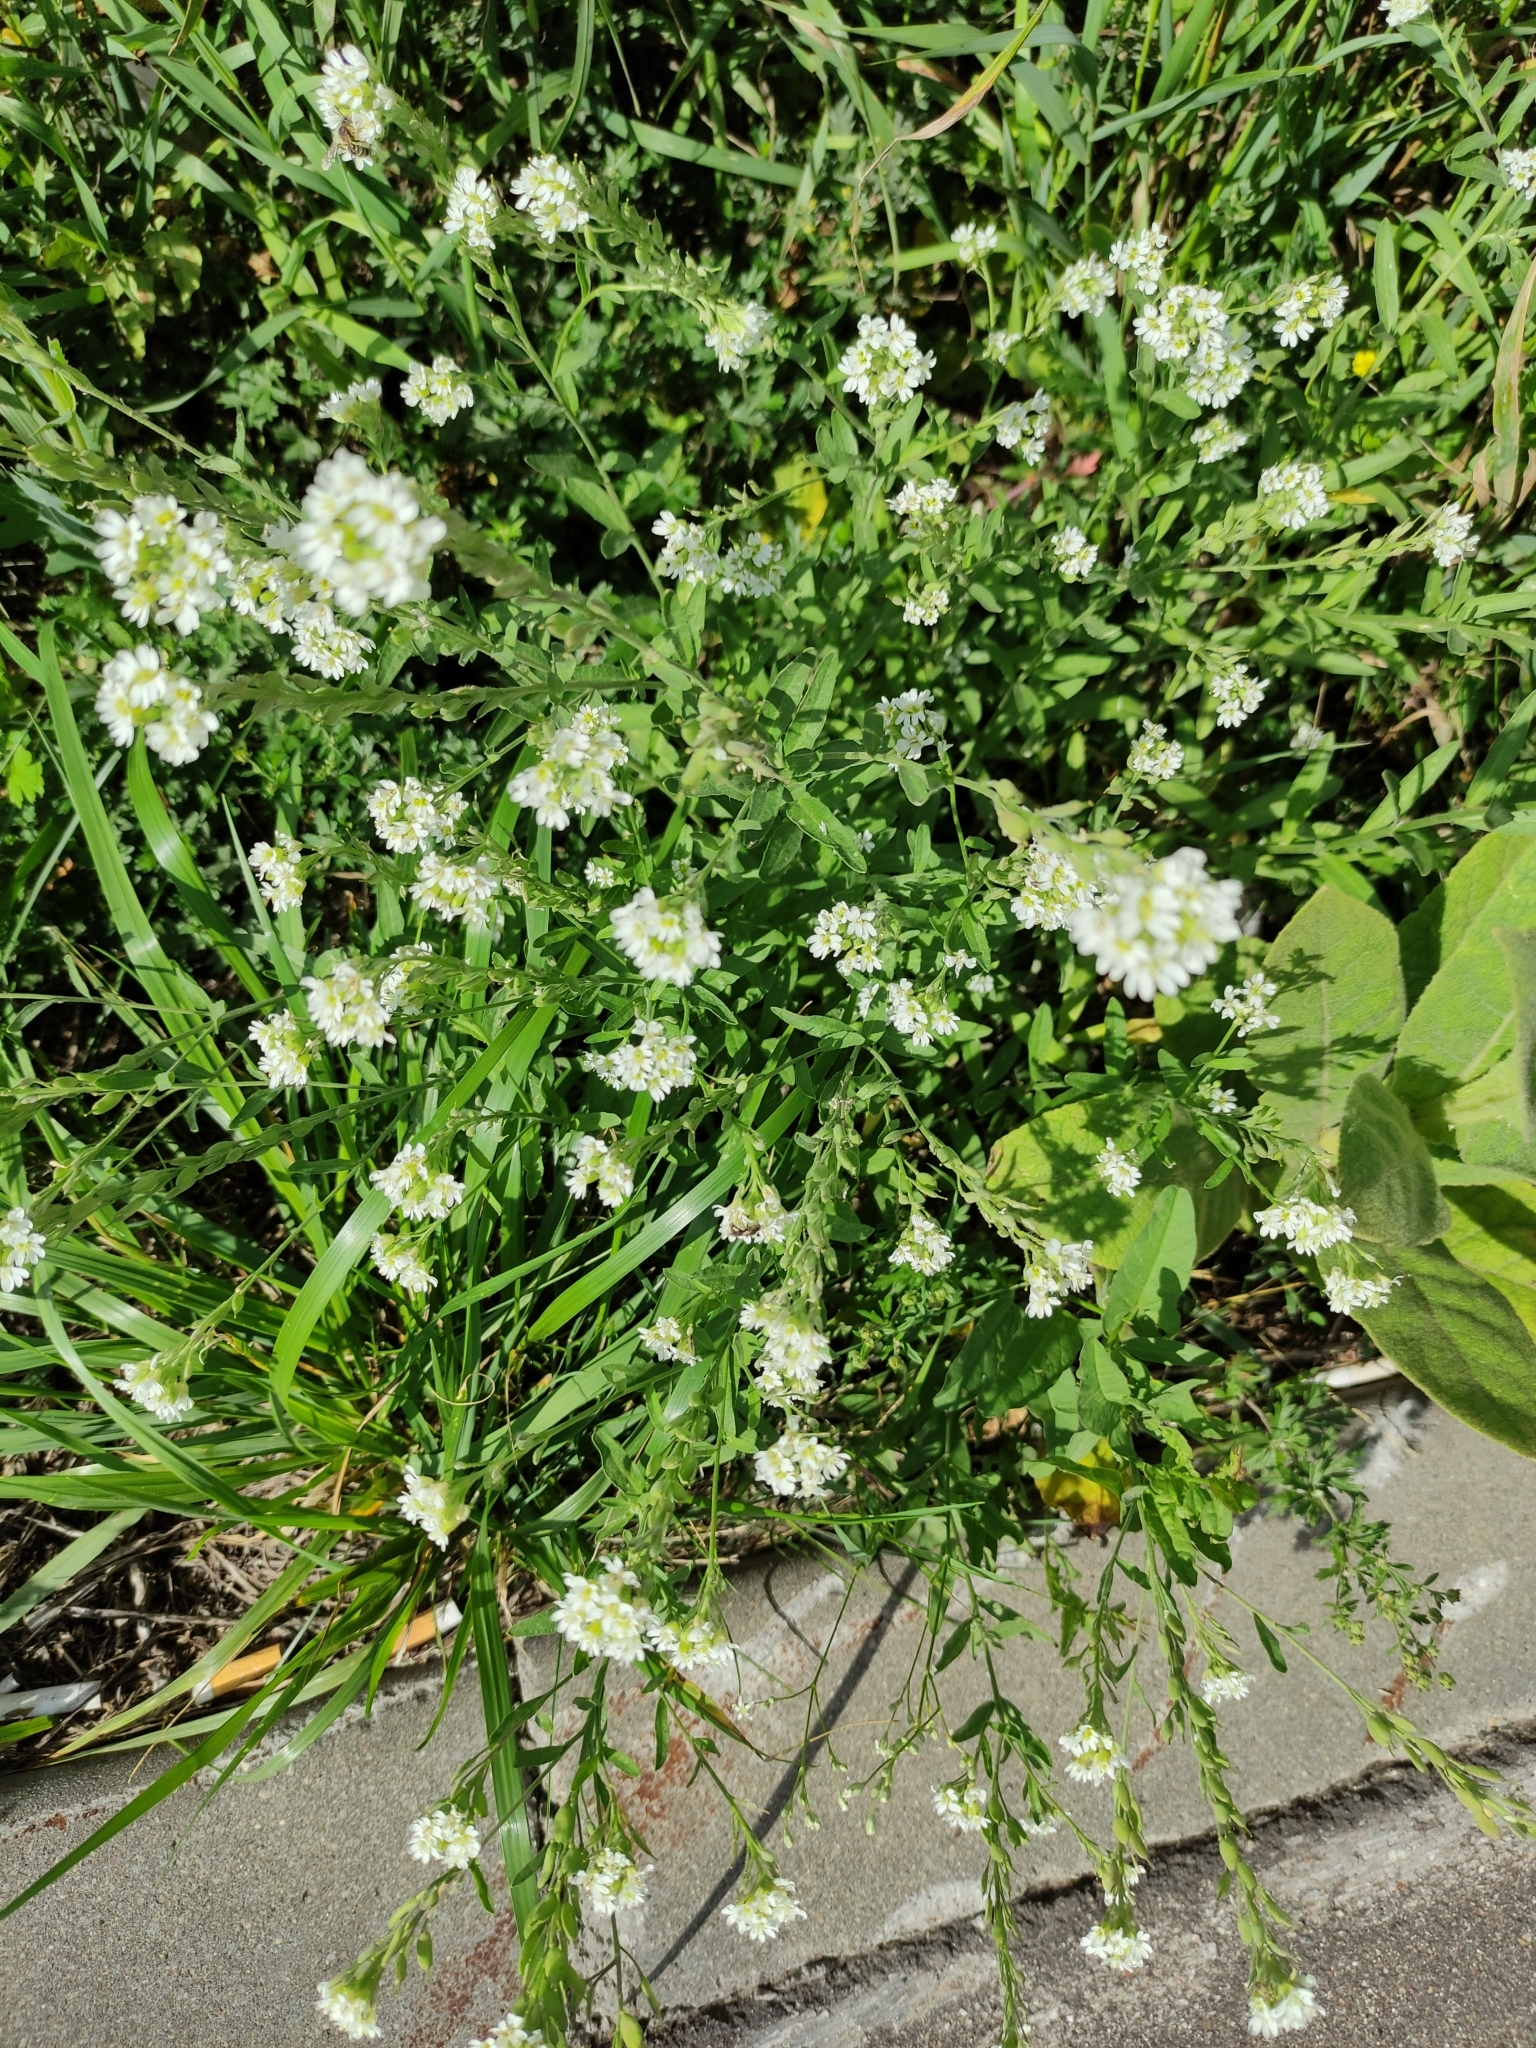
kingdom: Plantae
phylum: Tracheophyta
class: Magnoliopsida
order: Brassicales
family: Brassicaceae
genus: Berteroa
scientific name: Berteroa incana
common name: Hoary alison
